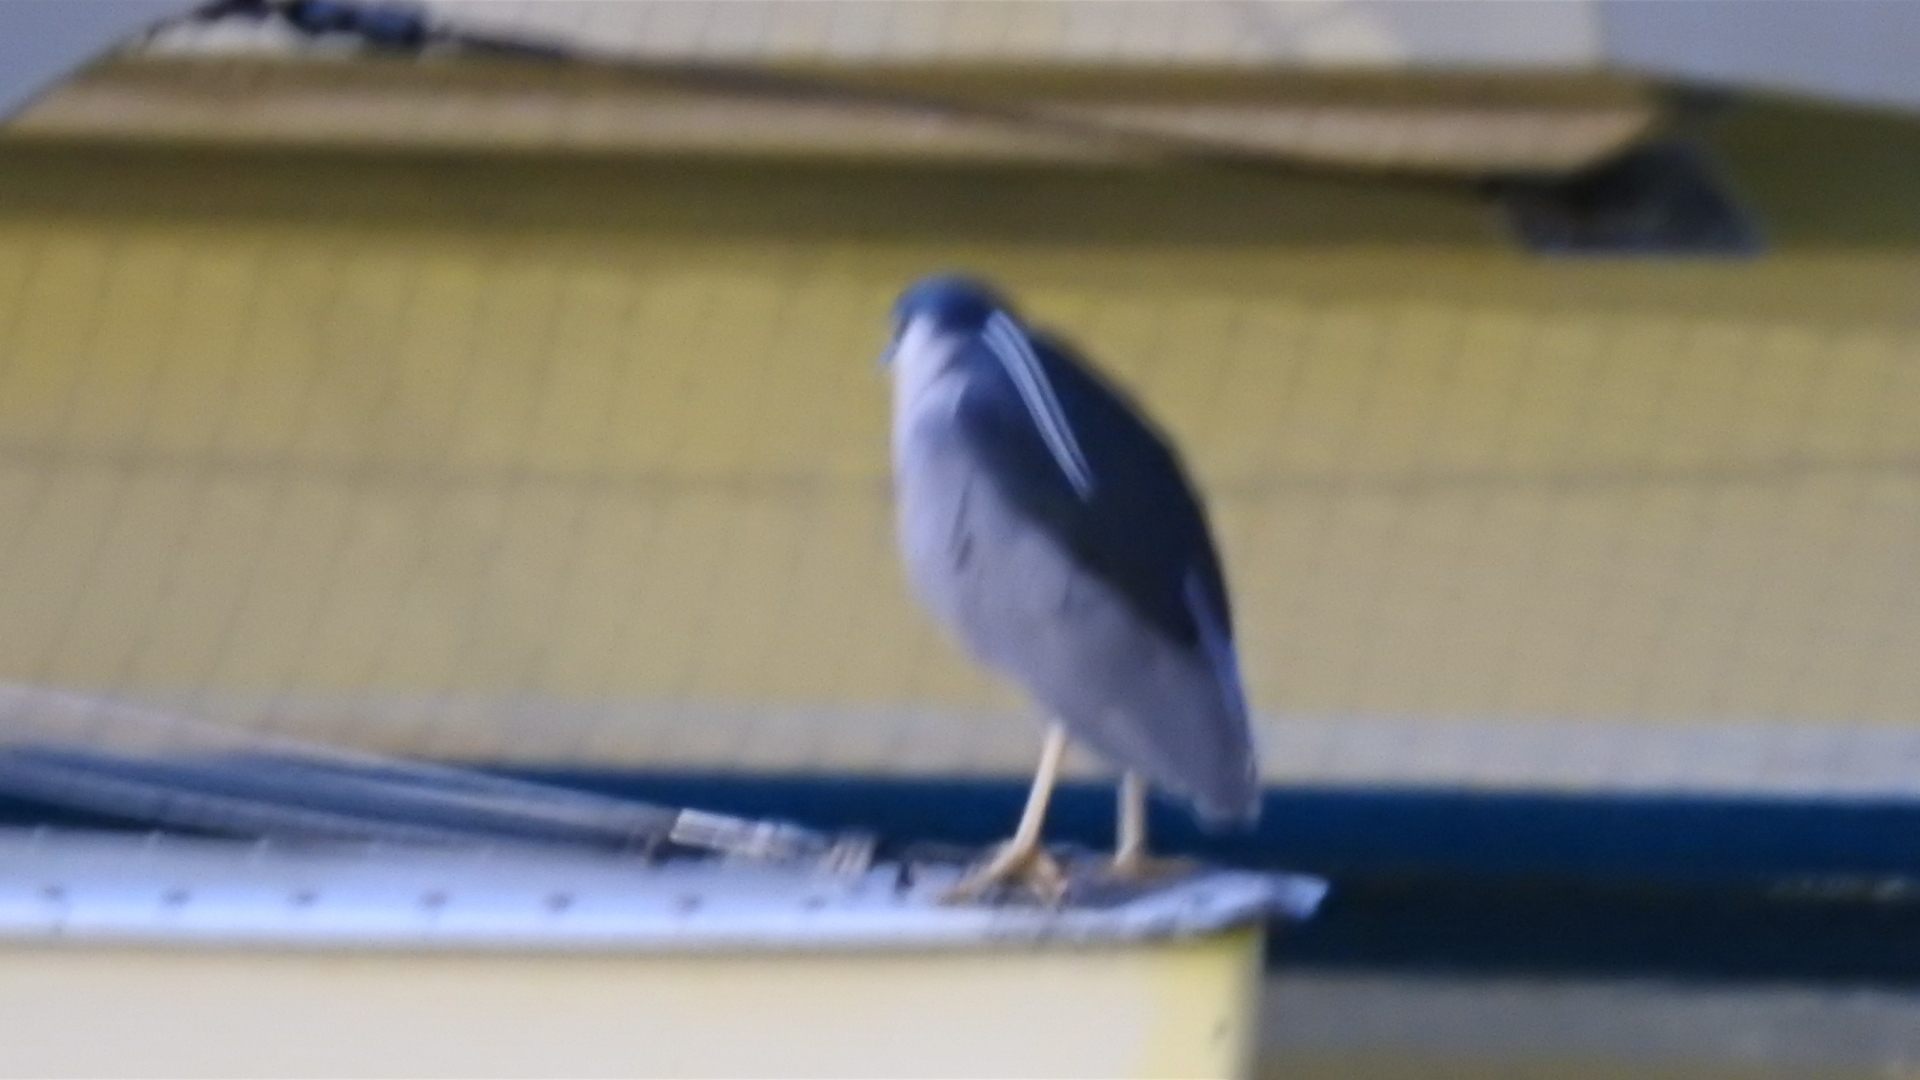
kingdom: Animalia
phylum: Chordata
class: Aves
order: Pelecaniformes
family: Ardeidae
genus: Nycticorax
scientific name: Nycticorax nycticorax
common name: Black-crowned night heron
